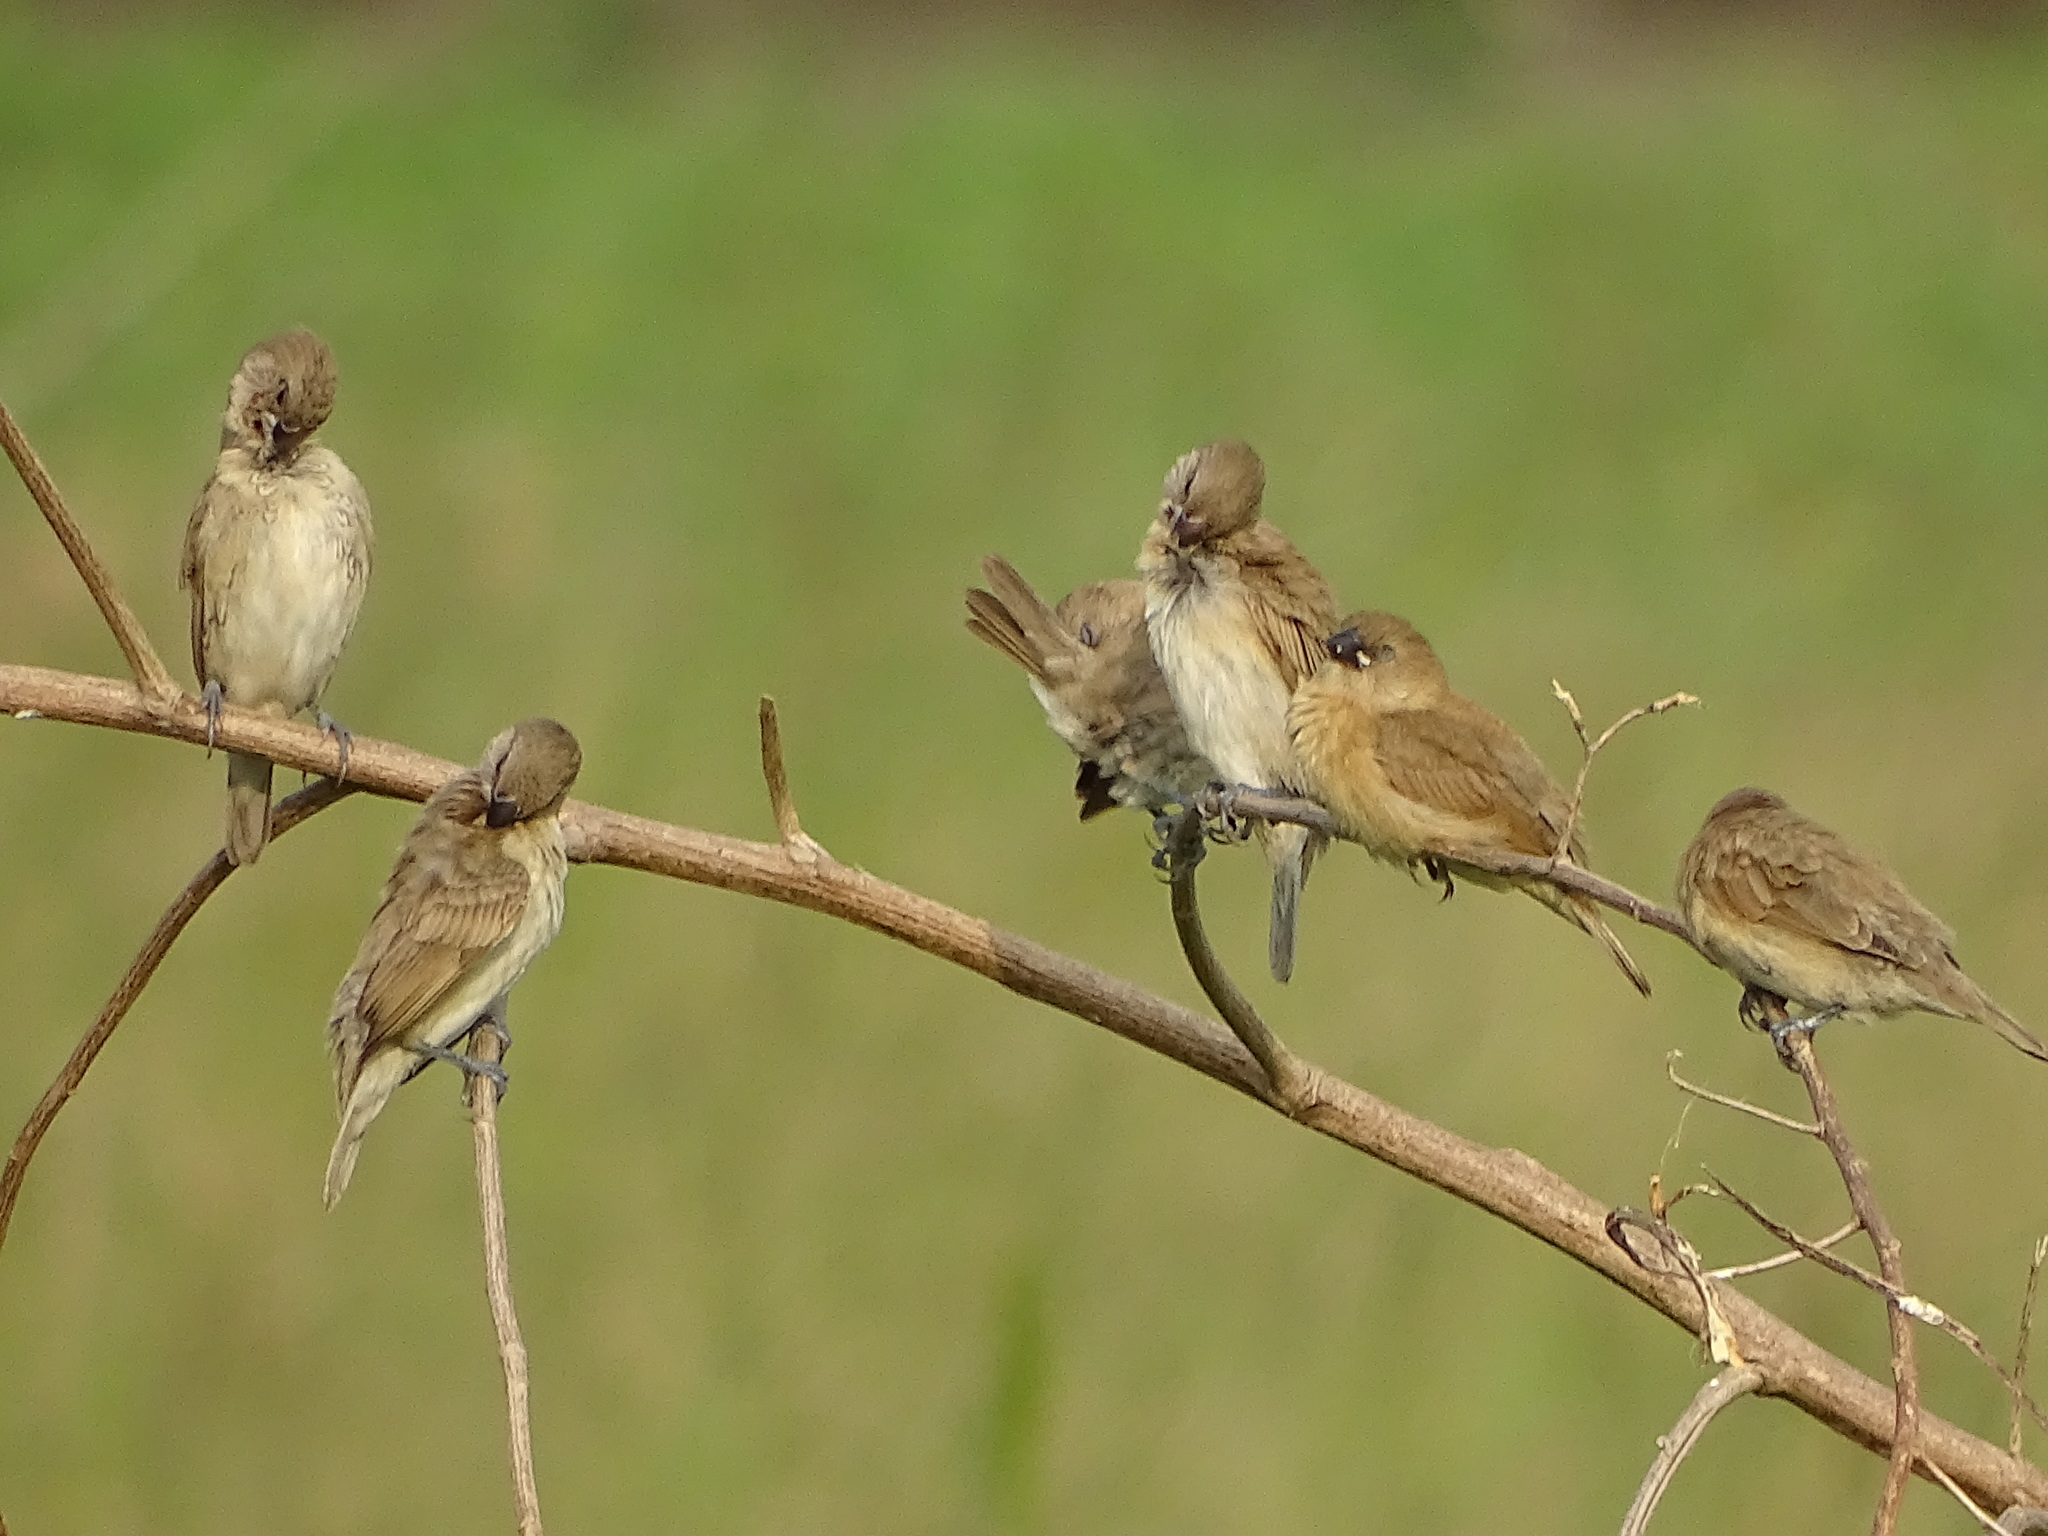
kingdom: Animalia
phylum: Chordata
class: Aves
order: Passeriformes
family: Estrildidae
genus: Lonchura
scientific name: Lonchura punctulata
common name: Scaly-breasted munia
